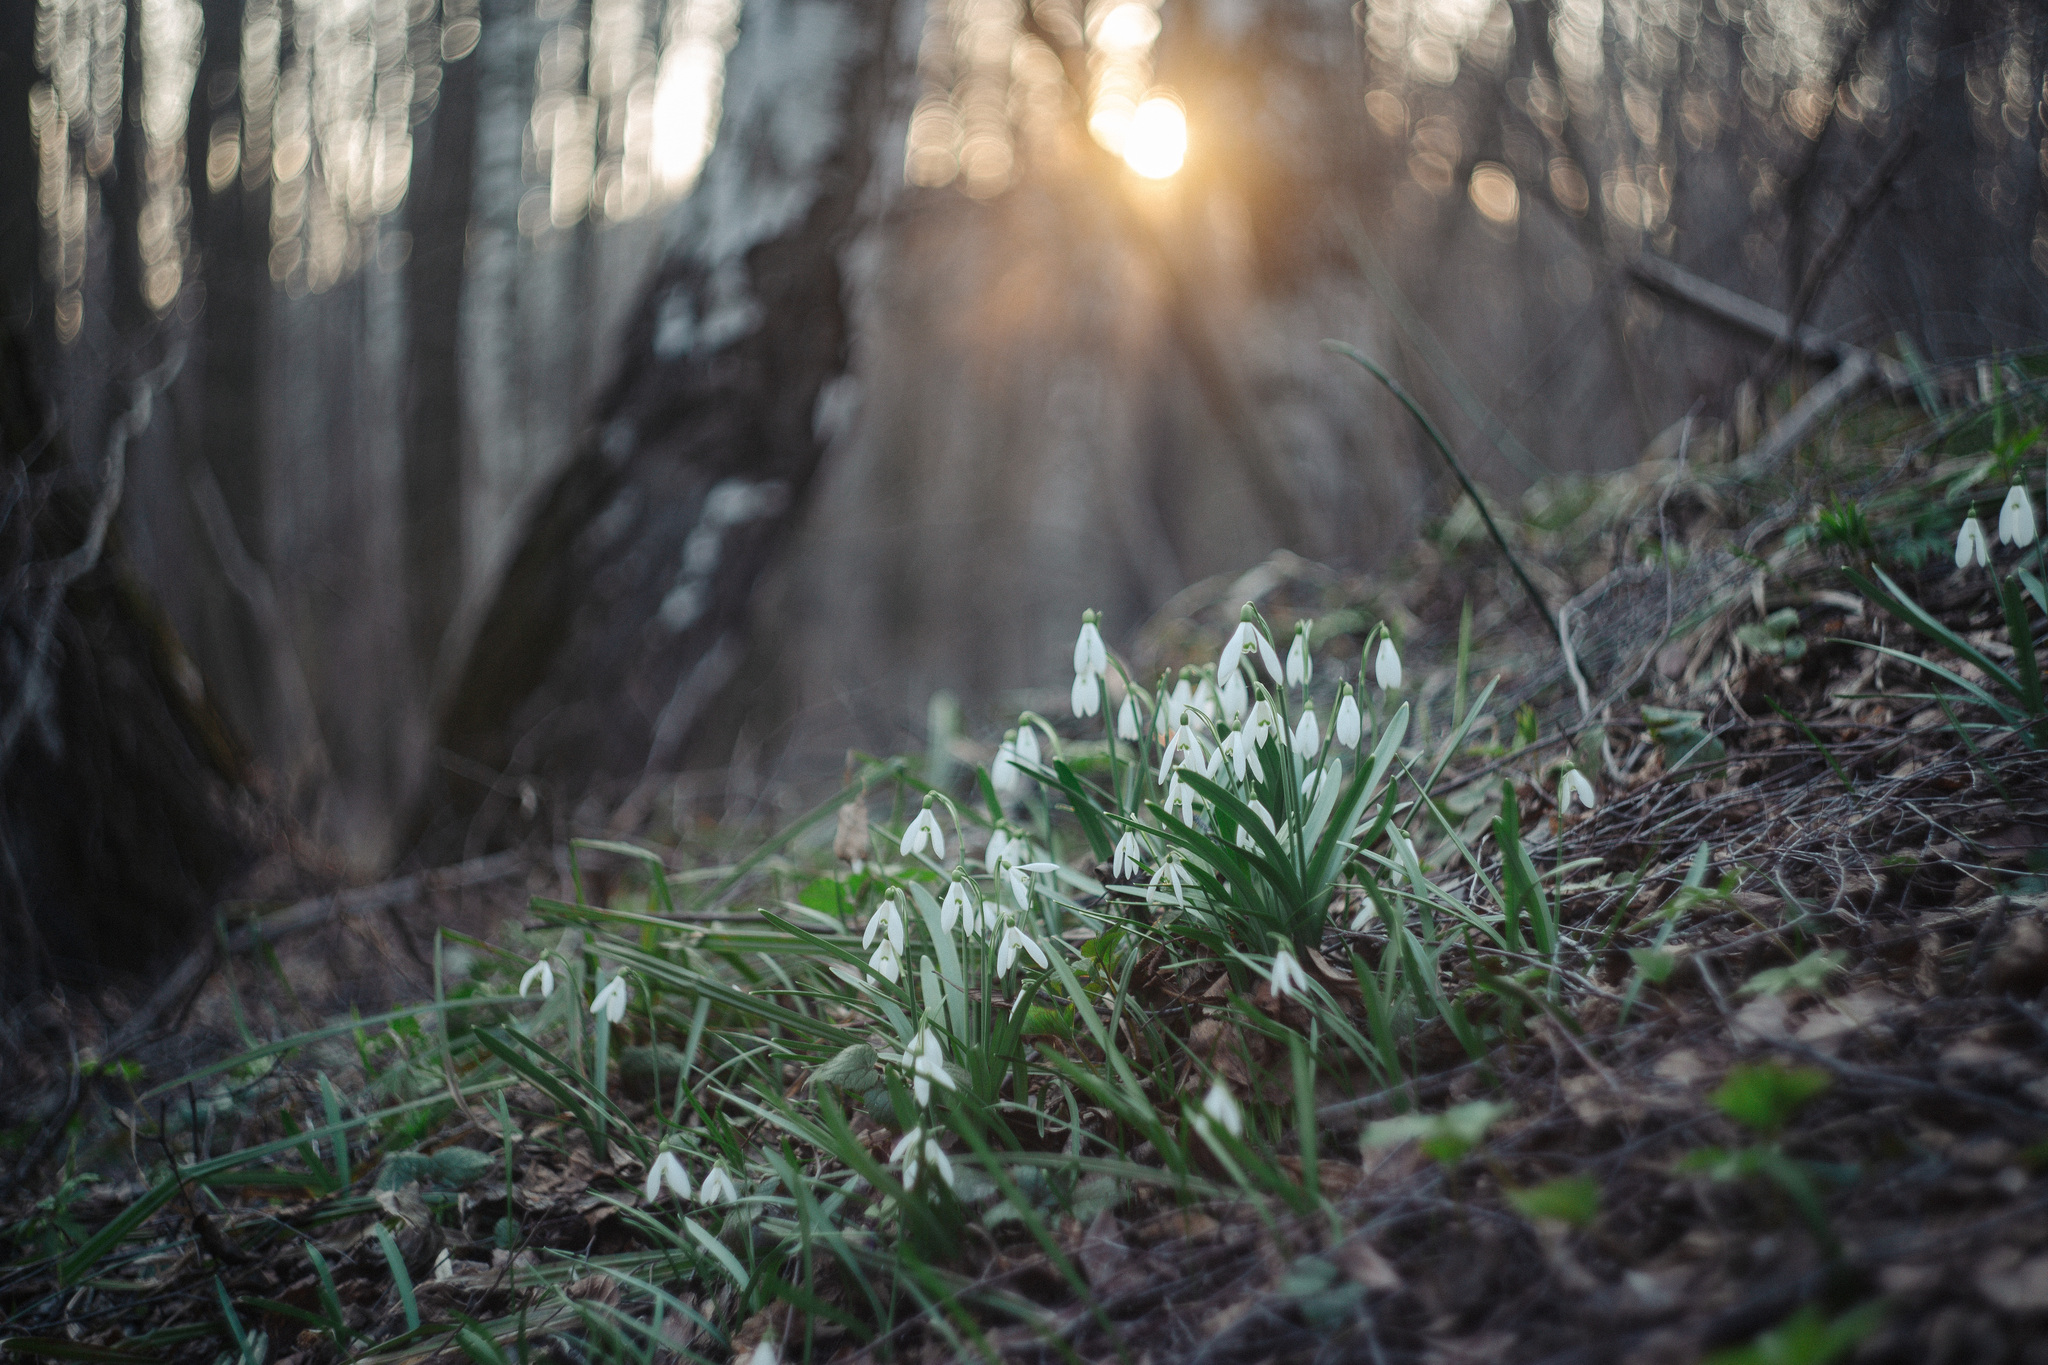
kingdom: Plantae
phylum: Tracheophyta
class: Liliopsida
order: Asparagales
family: Amaryllidaceae
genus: Galanthus
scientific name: Galanthus nivalis
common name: Snowdrop
